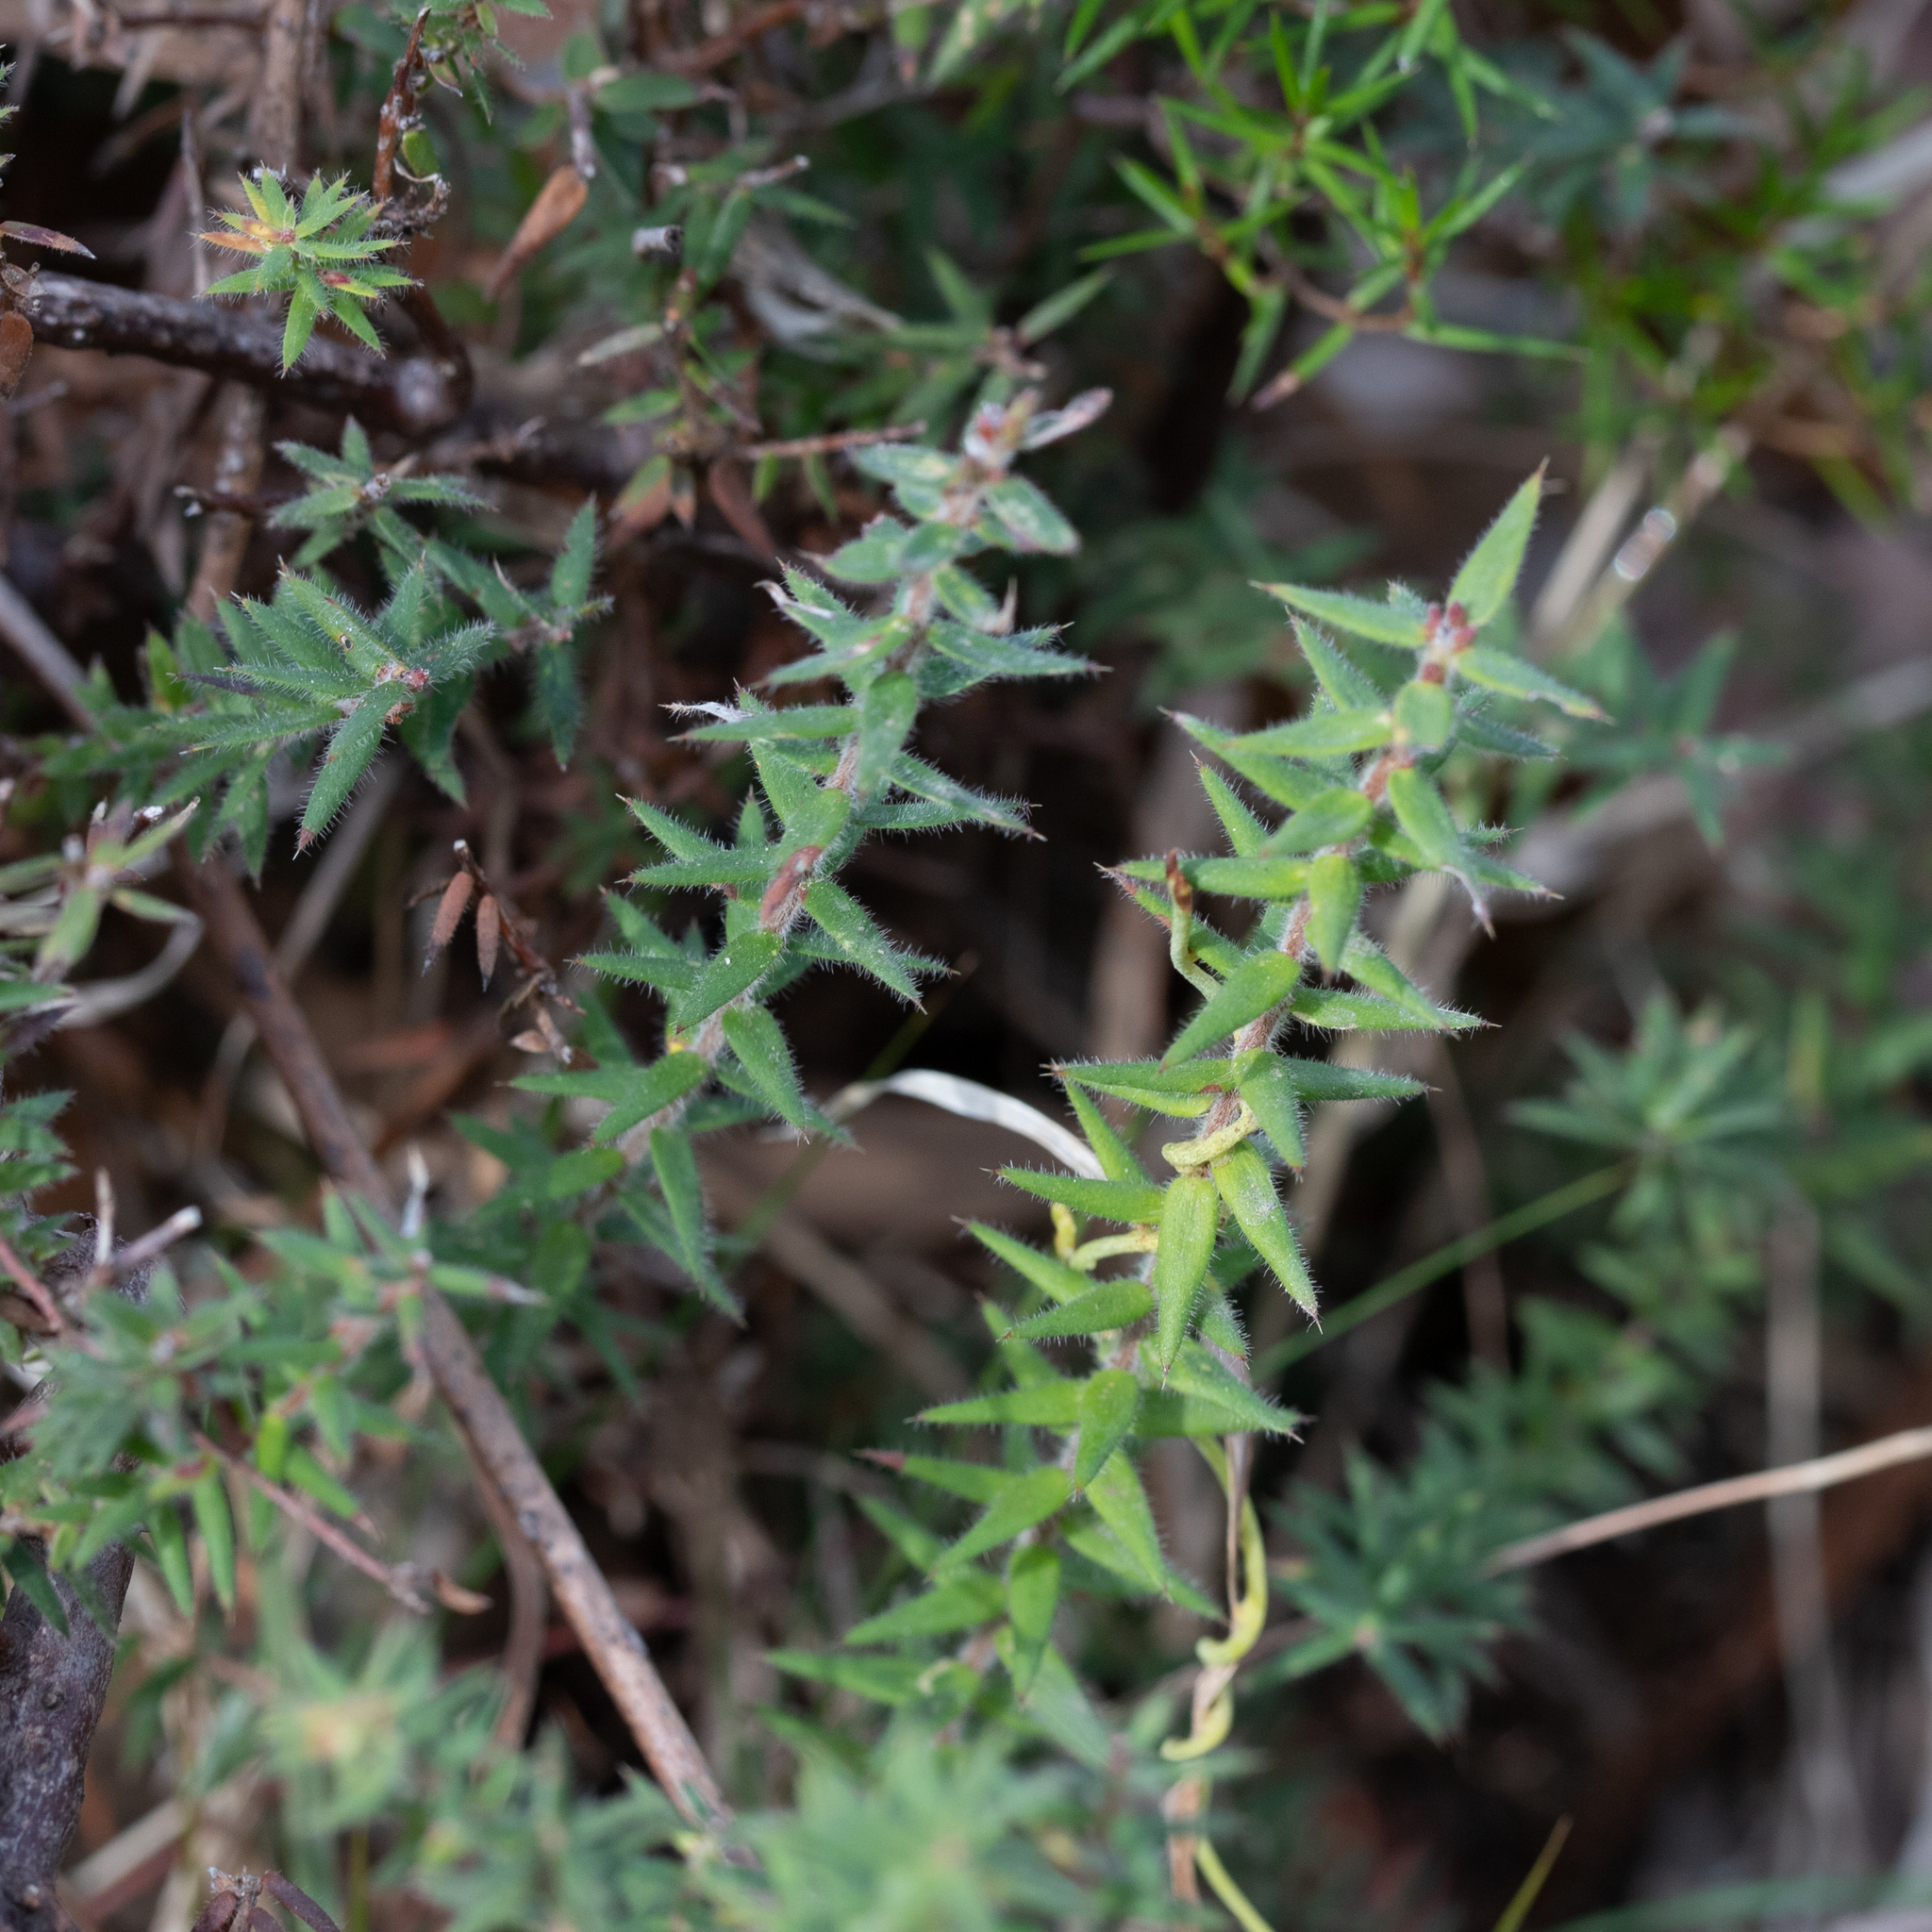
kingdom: Plantae
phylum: Tracheophyta
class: Magnoliopsida
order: Ericales
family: Ericaceae
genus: Acrotriche
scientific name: Acrotriche fasciculiflora
